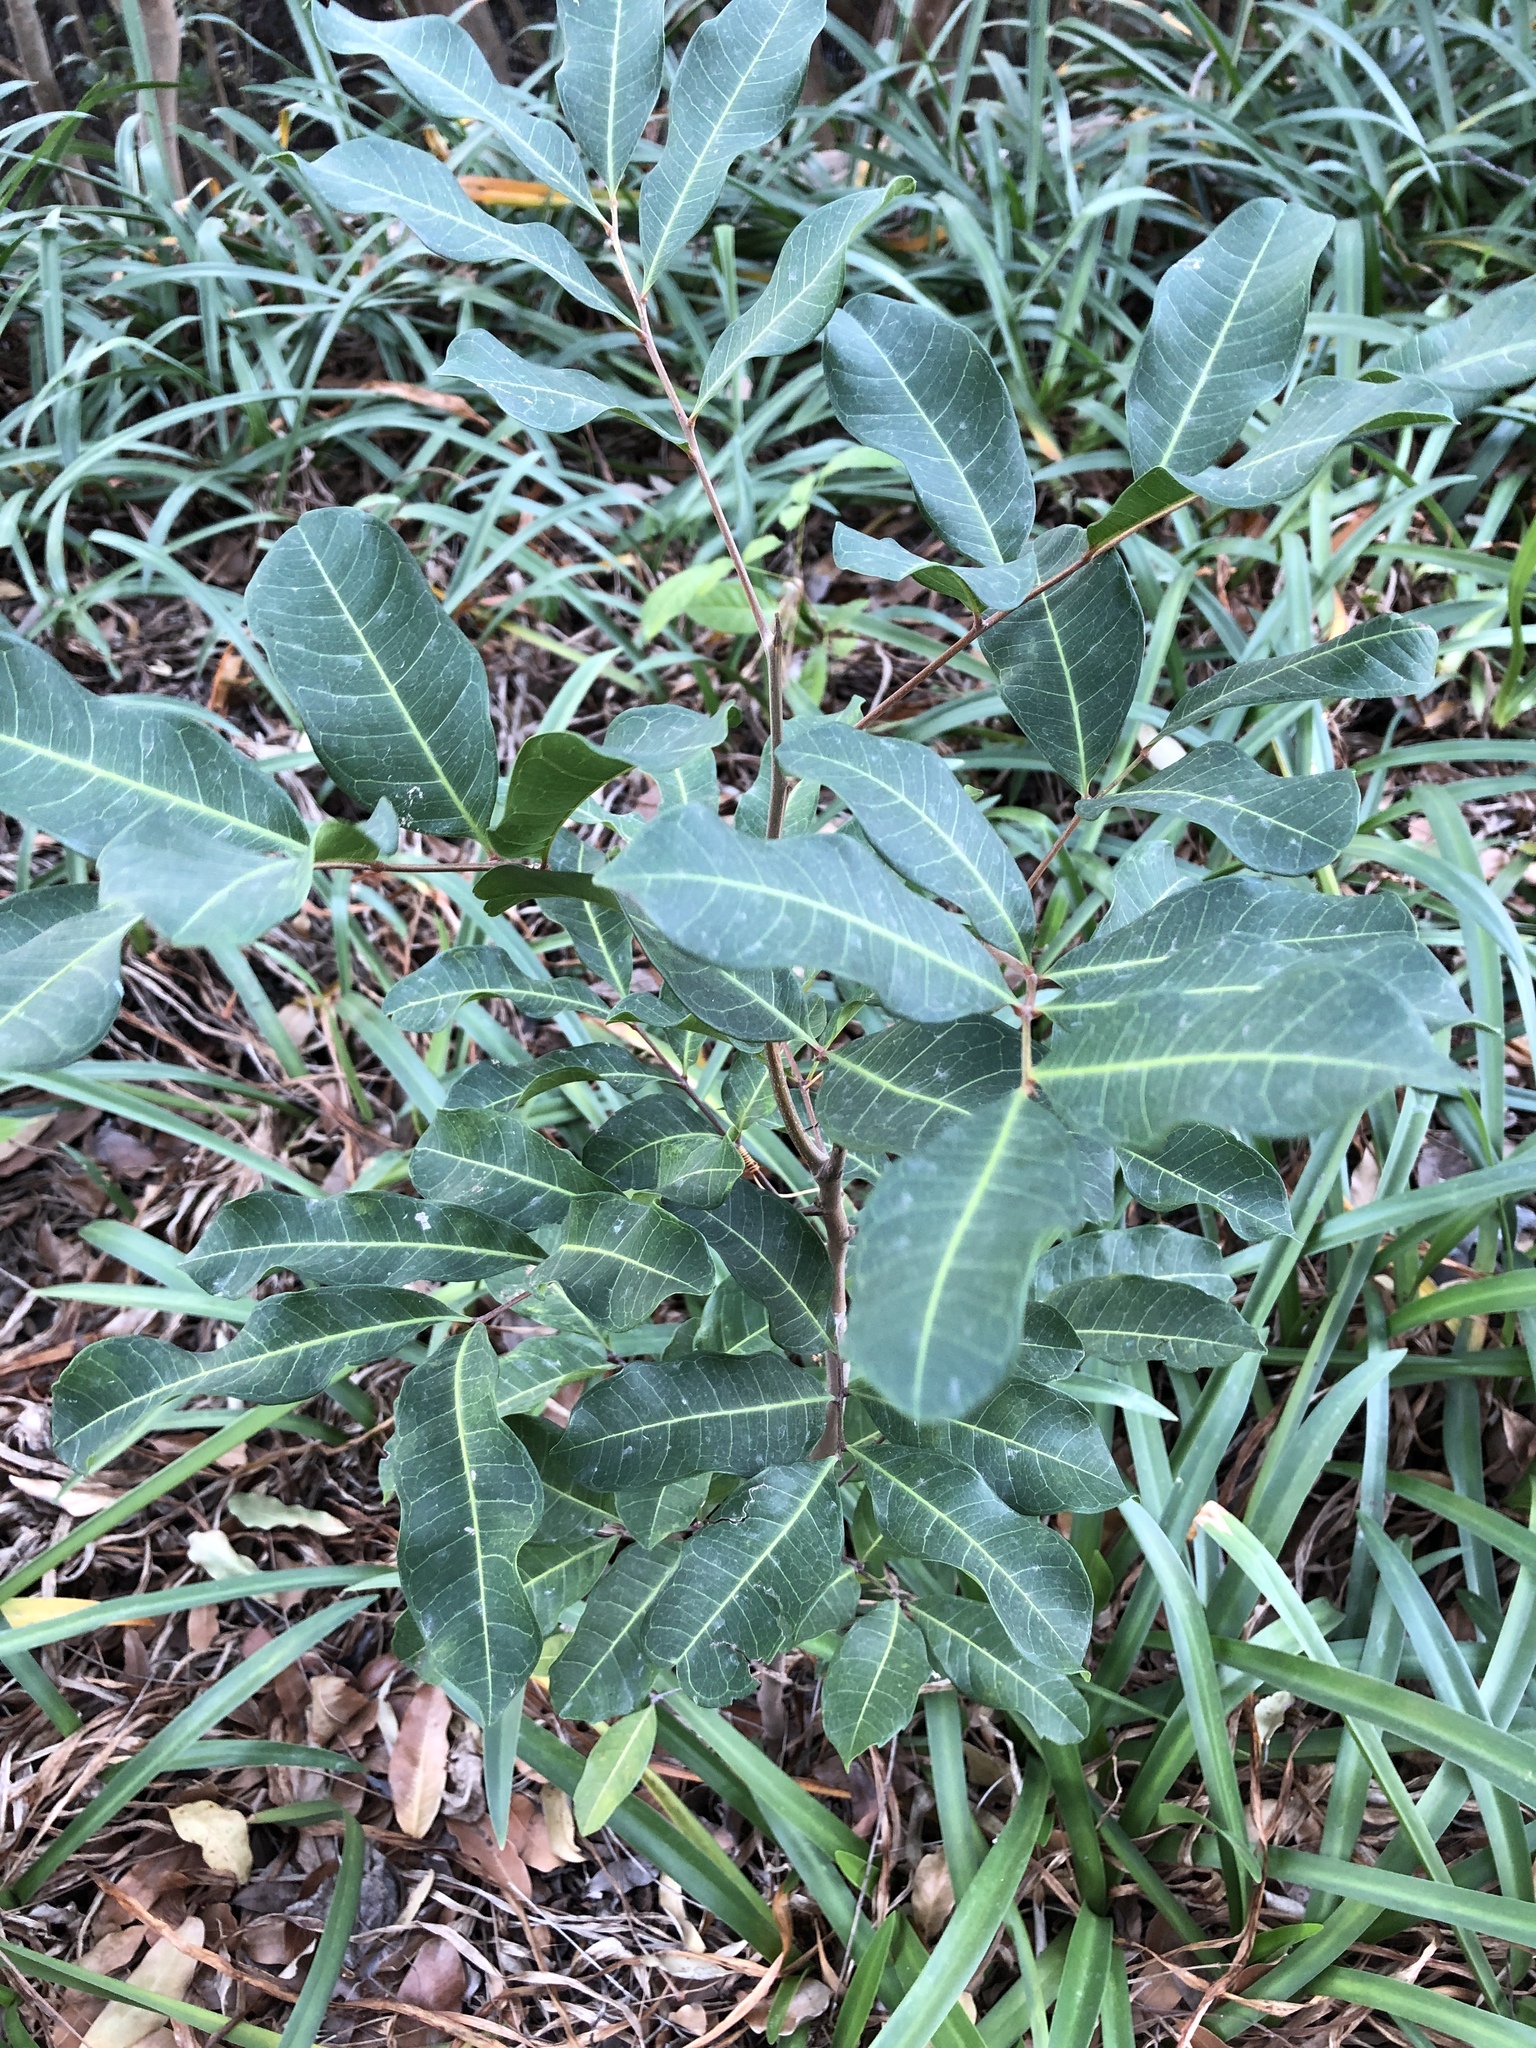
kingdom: Plantae
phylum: Tracheophyta
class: Magnoliopsida
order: Sapindales
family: Sapindaceae
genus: Cupaniopsis
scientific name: Cupaniopsis anacardioides
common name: Carrotwood
